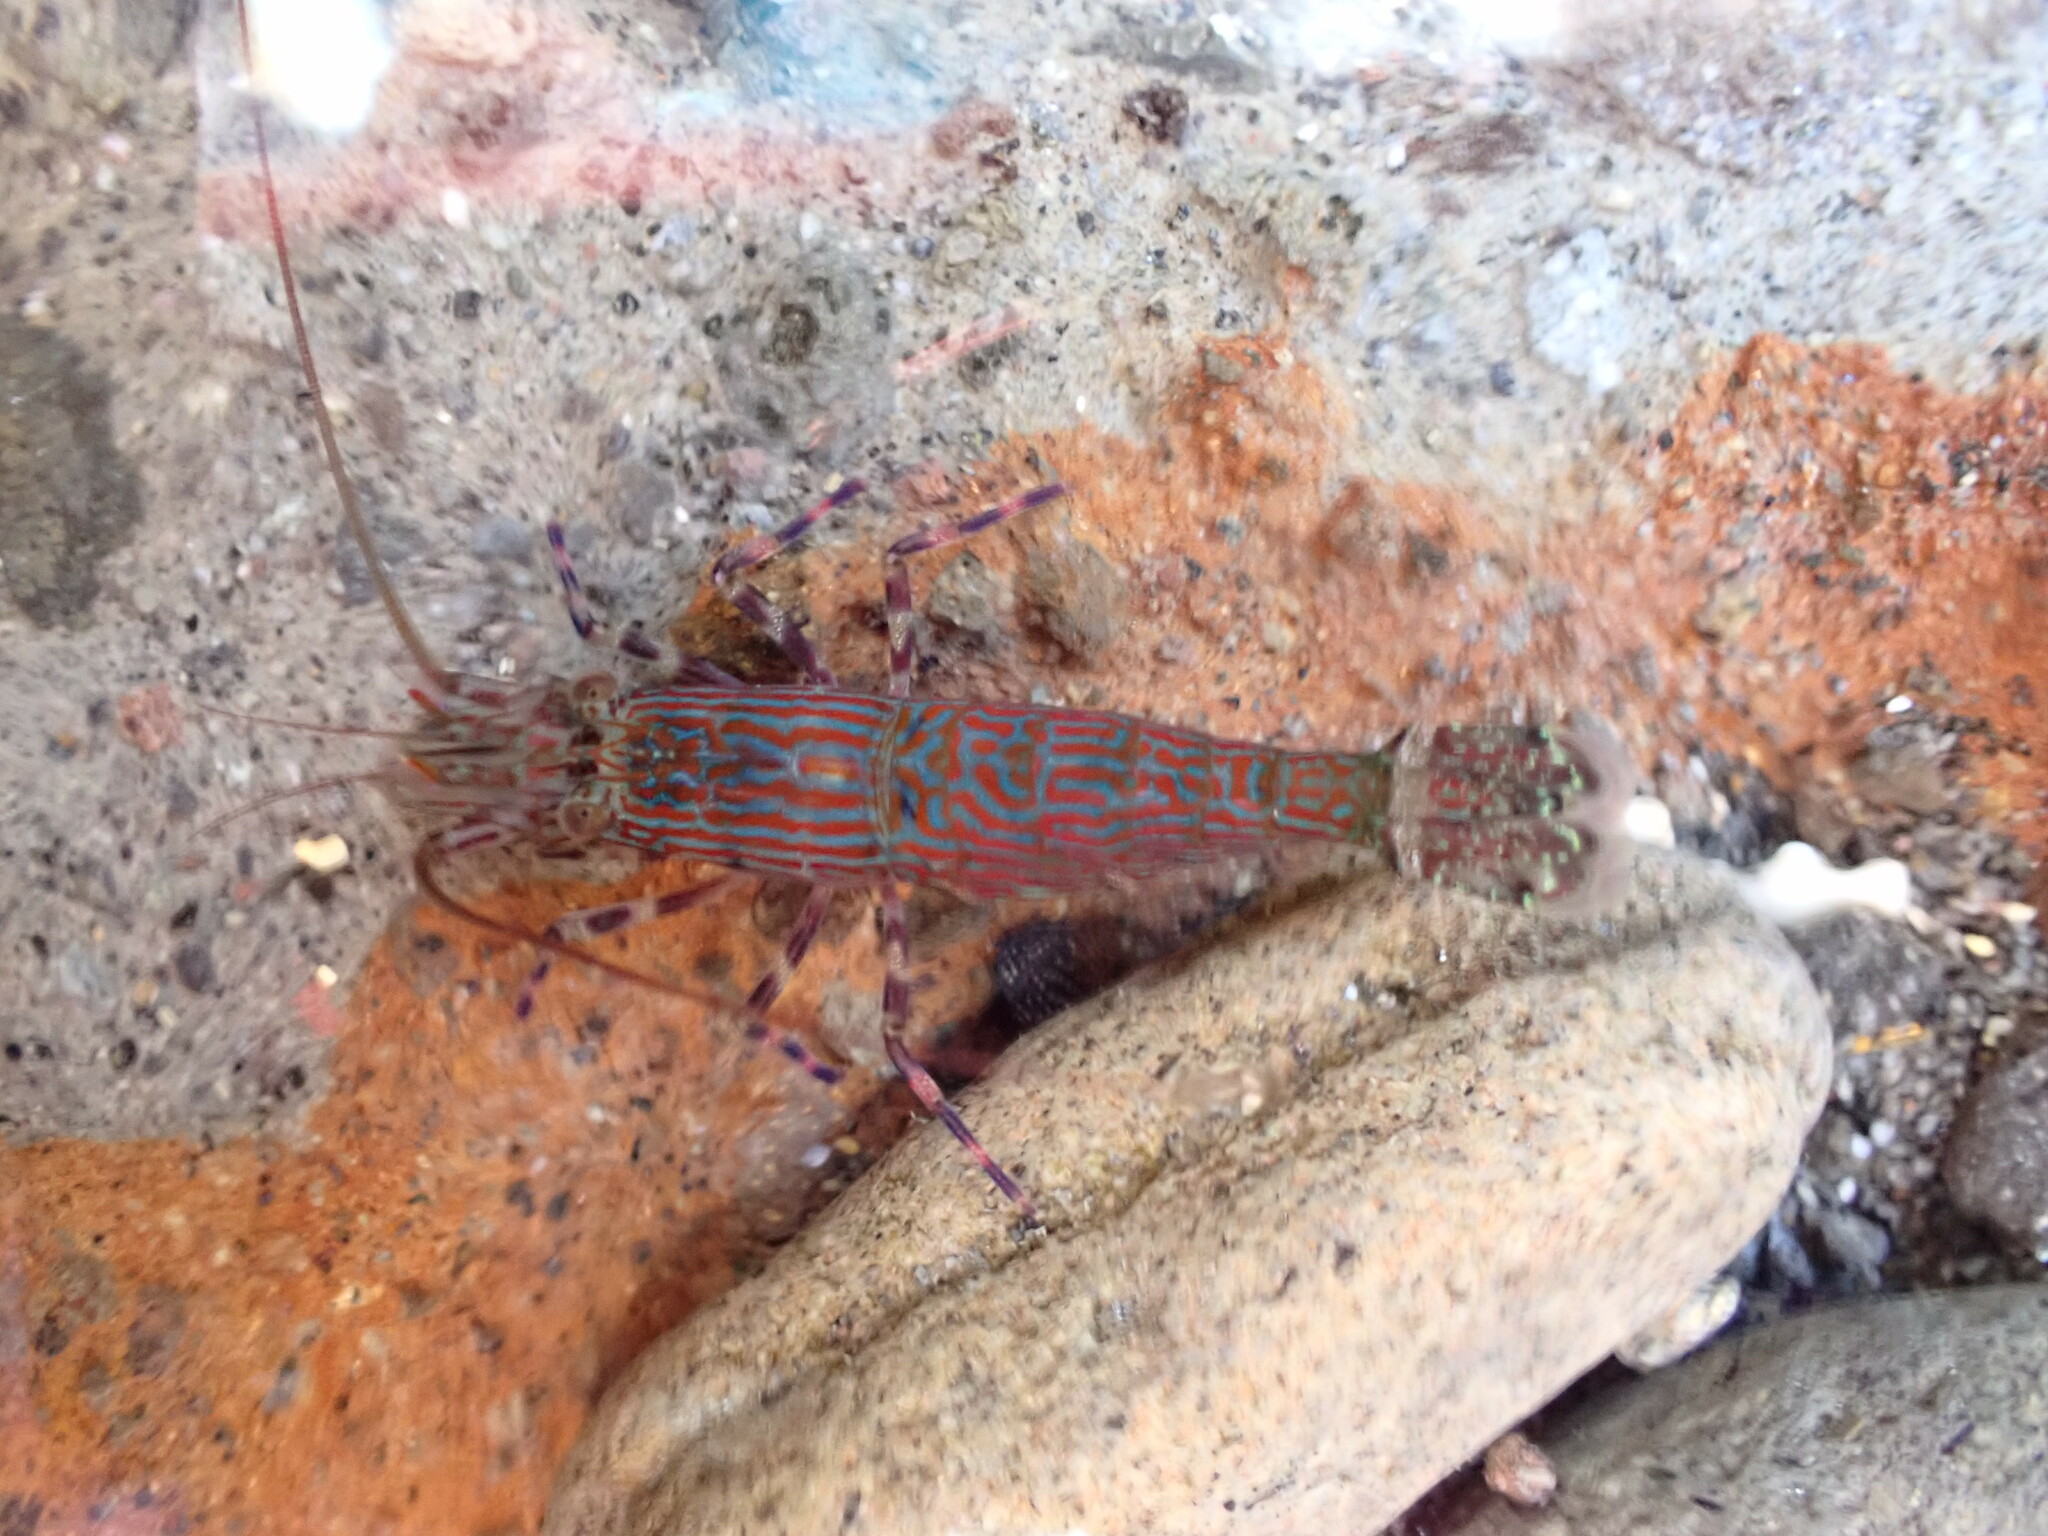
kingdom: Animalia
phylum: Arthropoda
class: Malacostraca
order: Decapoda
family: Hippolytidae
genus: Alope
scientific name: Alope spinifrons
